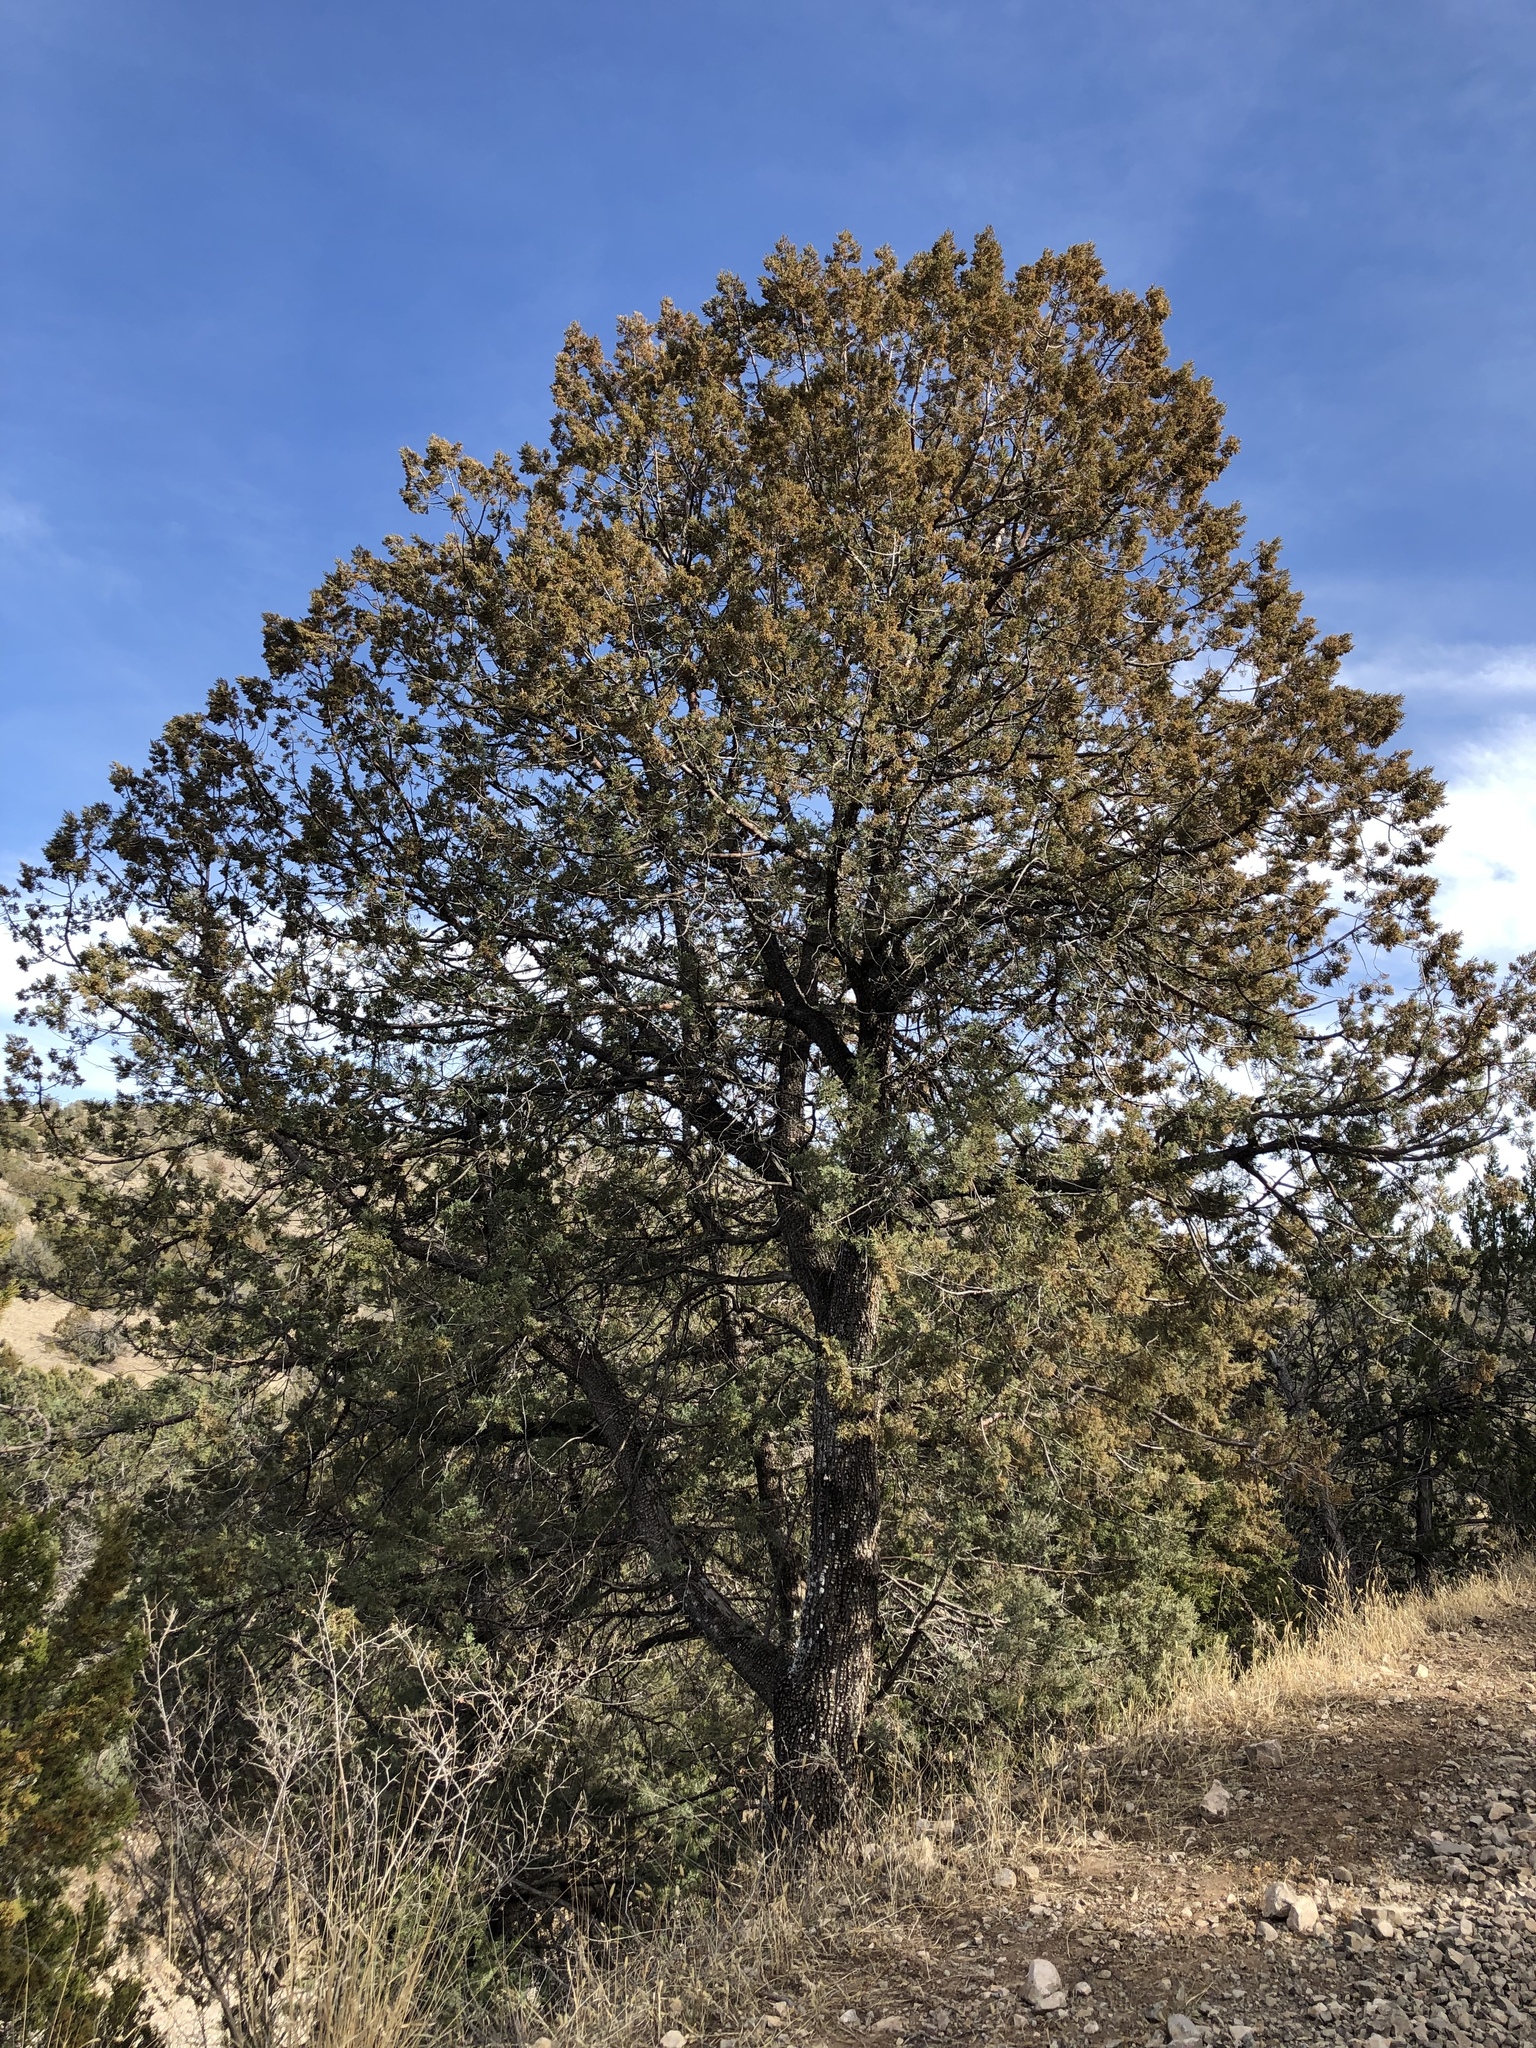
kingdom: Plantae
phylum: Tracheophyta
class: Pinopsida
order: Pinales
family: Cupressaceae
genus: Juniperus
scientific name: Juniperus deppeana
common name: Alligator juniper
